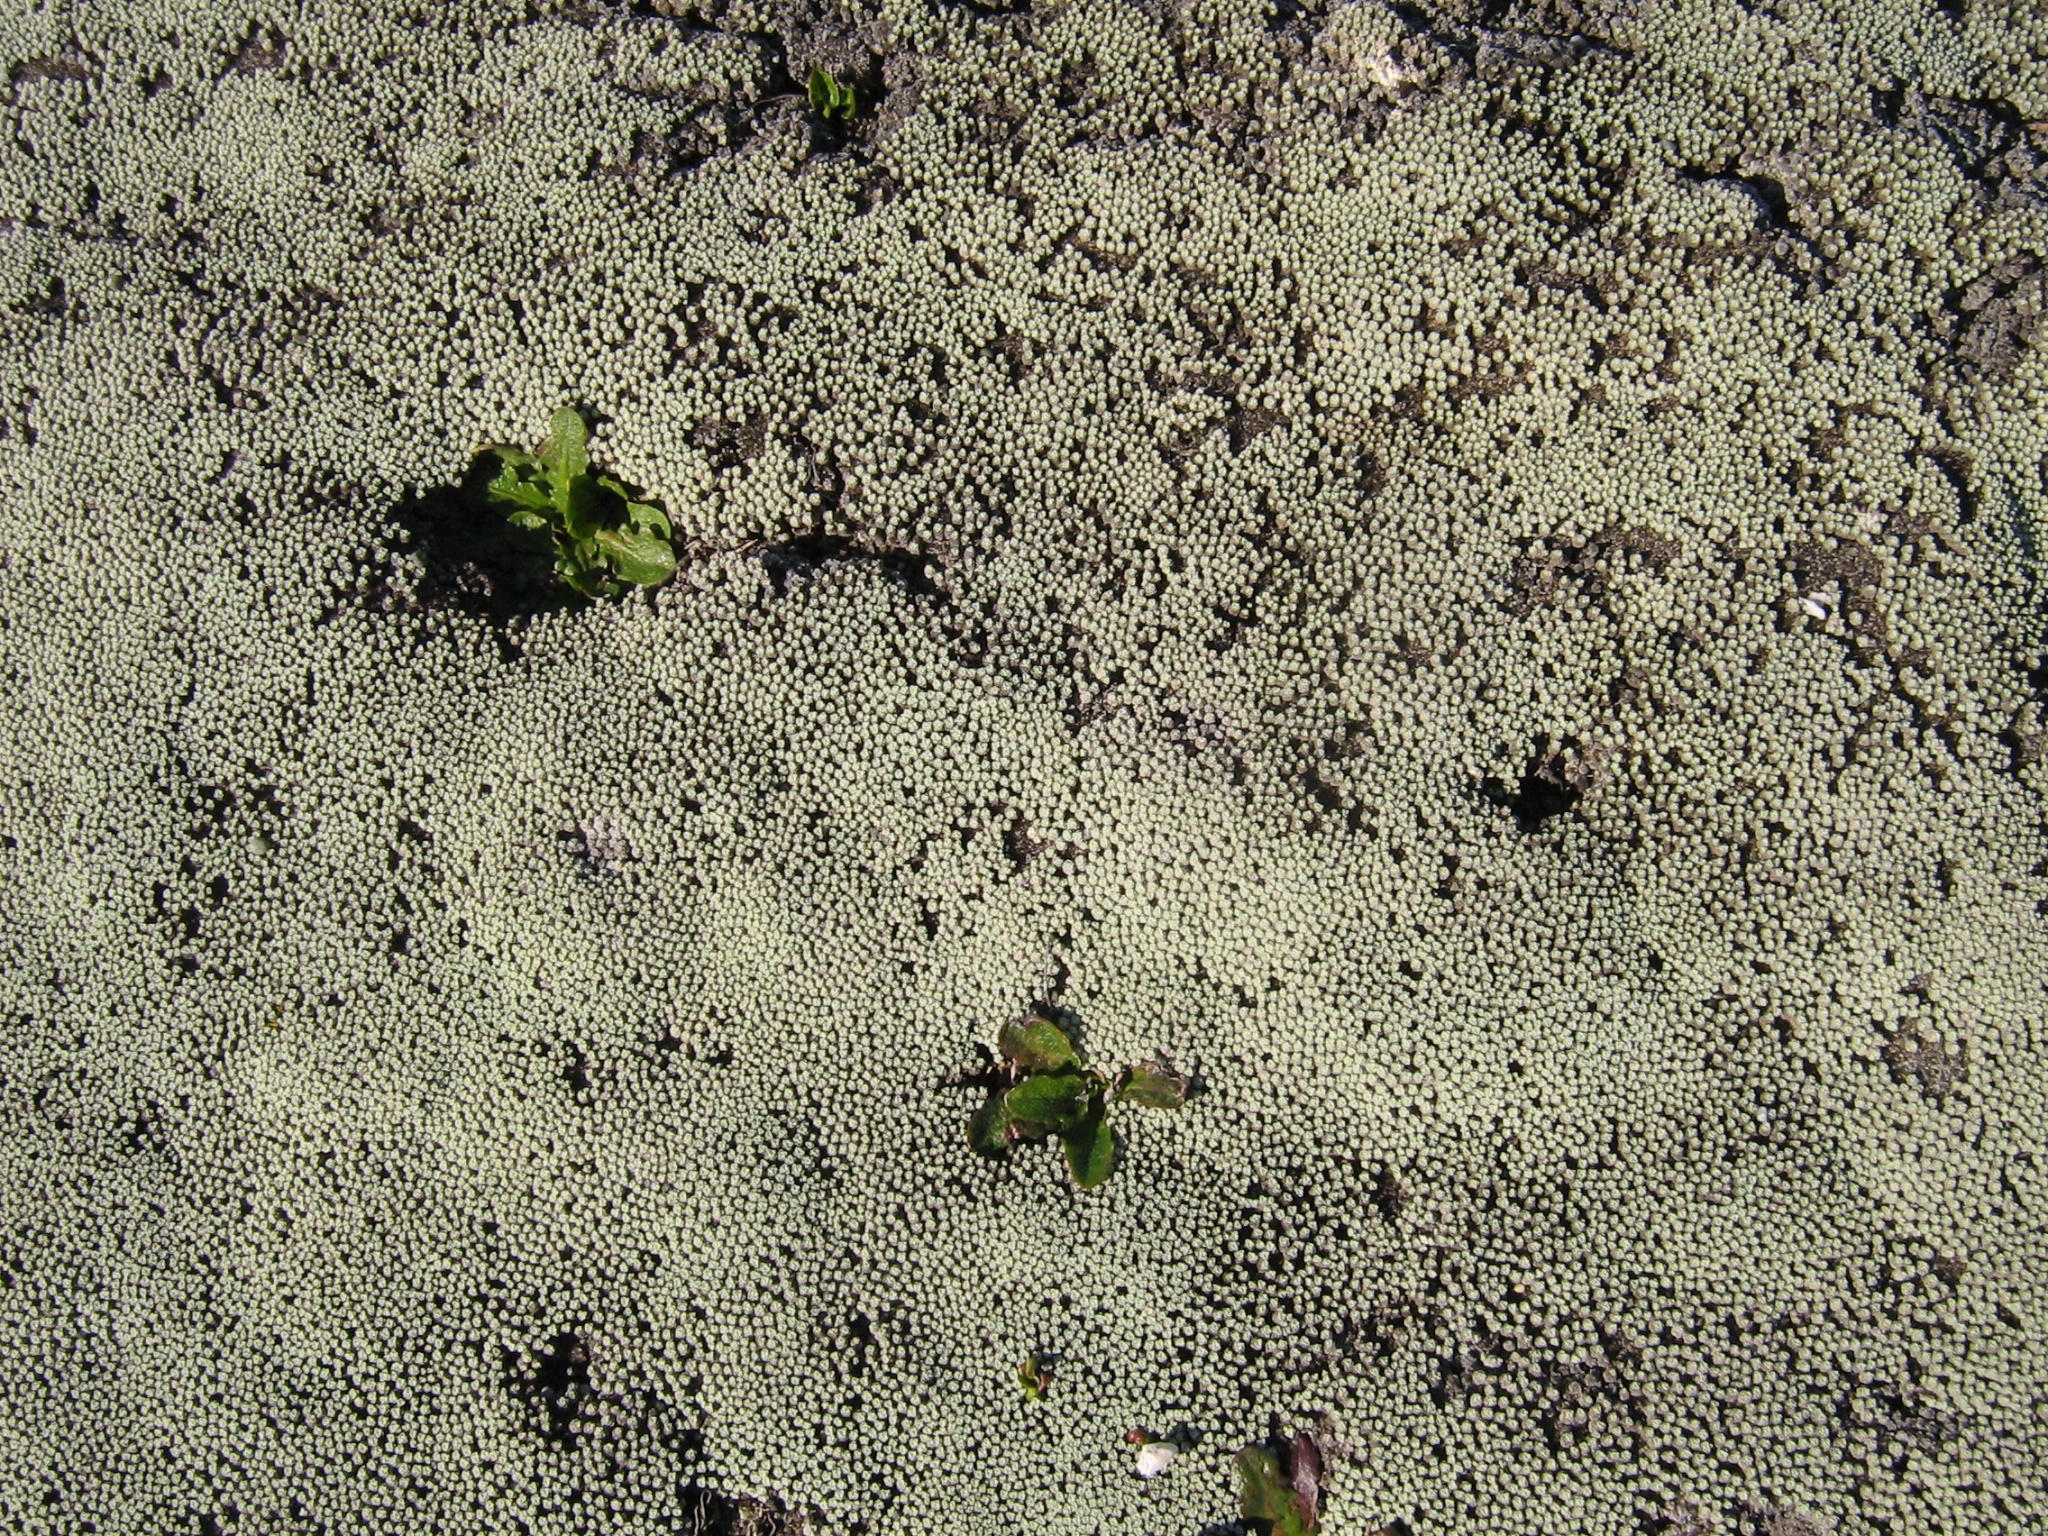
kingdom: Plantae
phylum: Tracheophyta
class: Magnoliopsida
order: Asterales
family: Asteraceae
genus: Raoulia
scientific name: Raoulia australis
